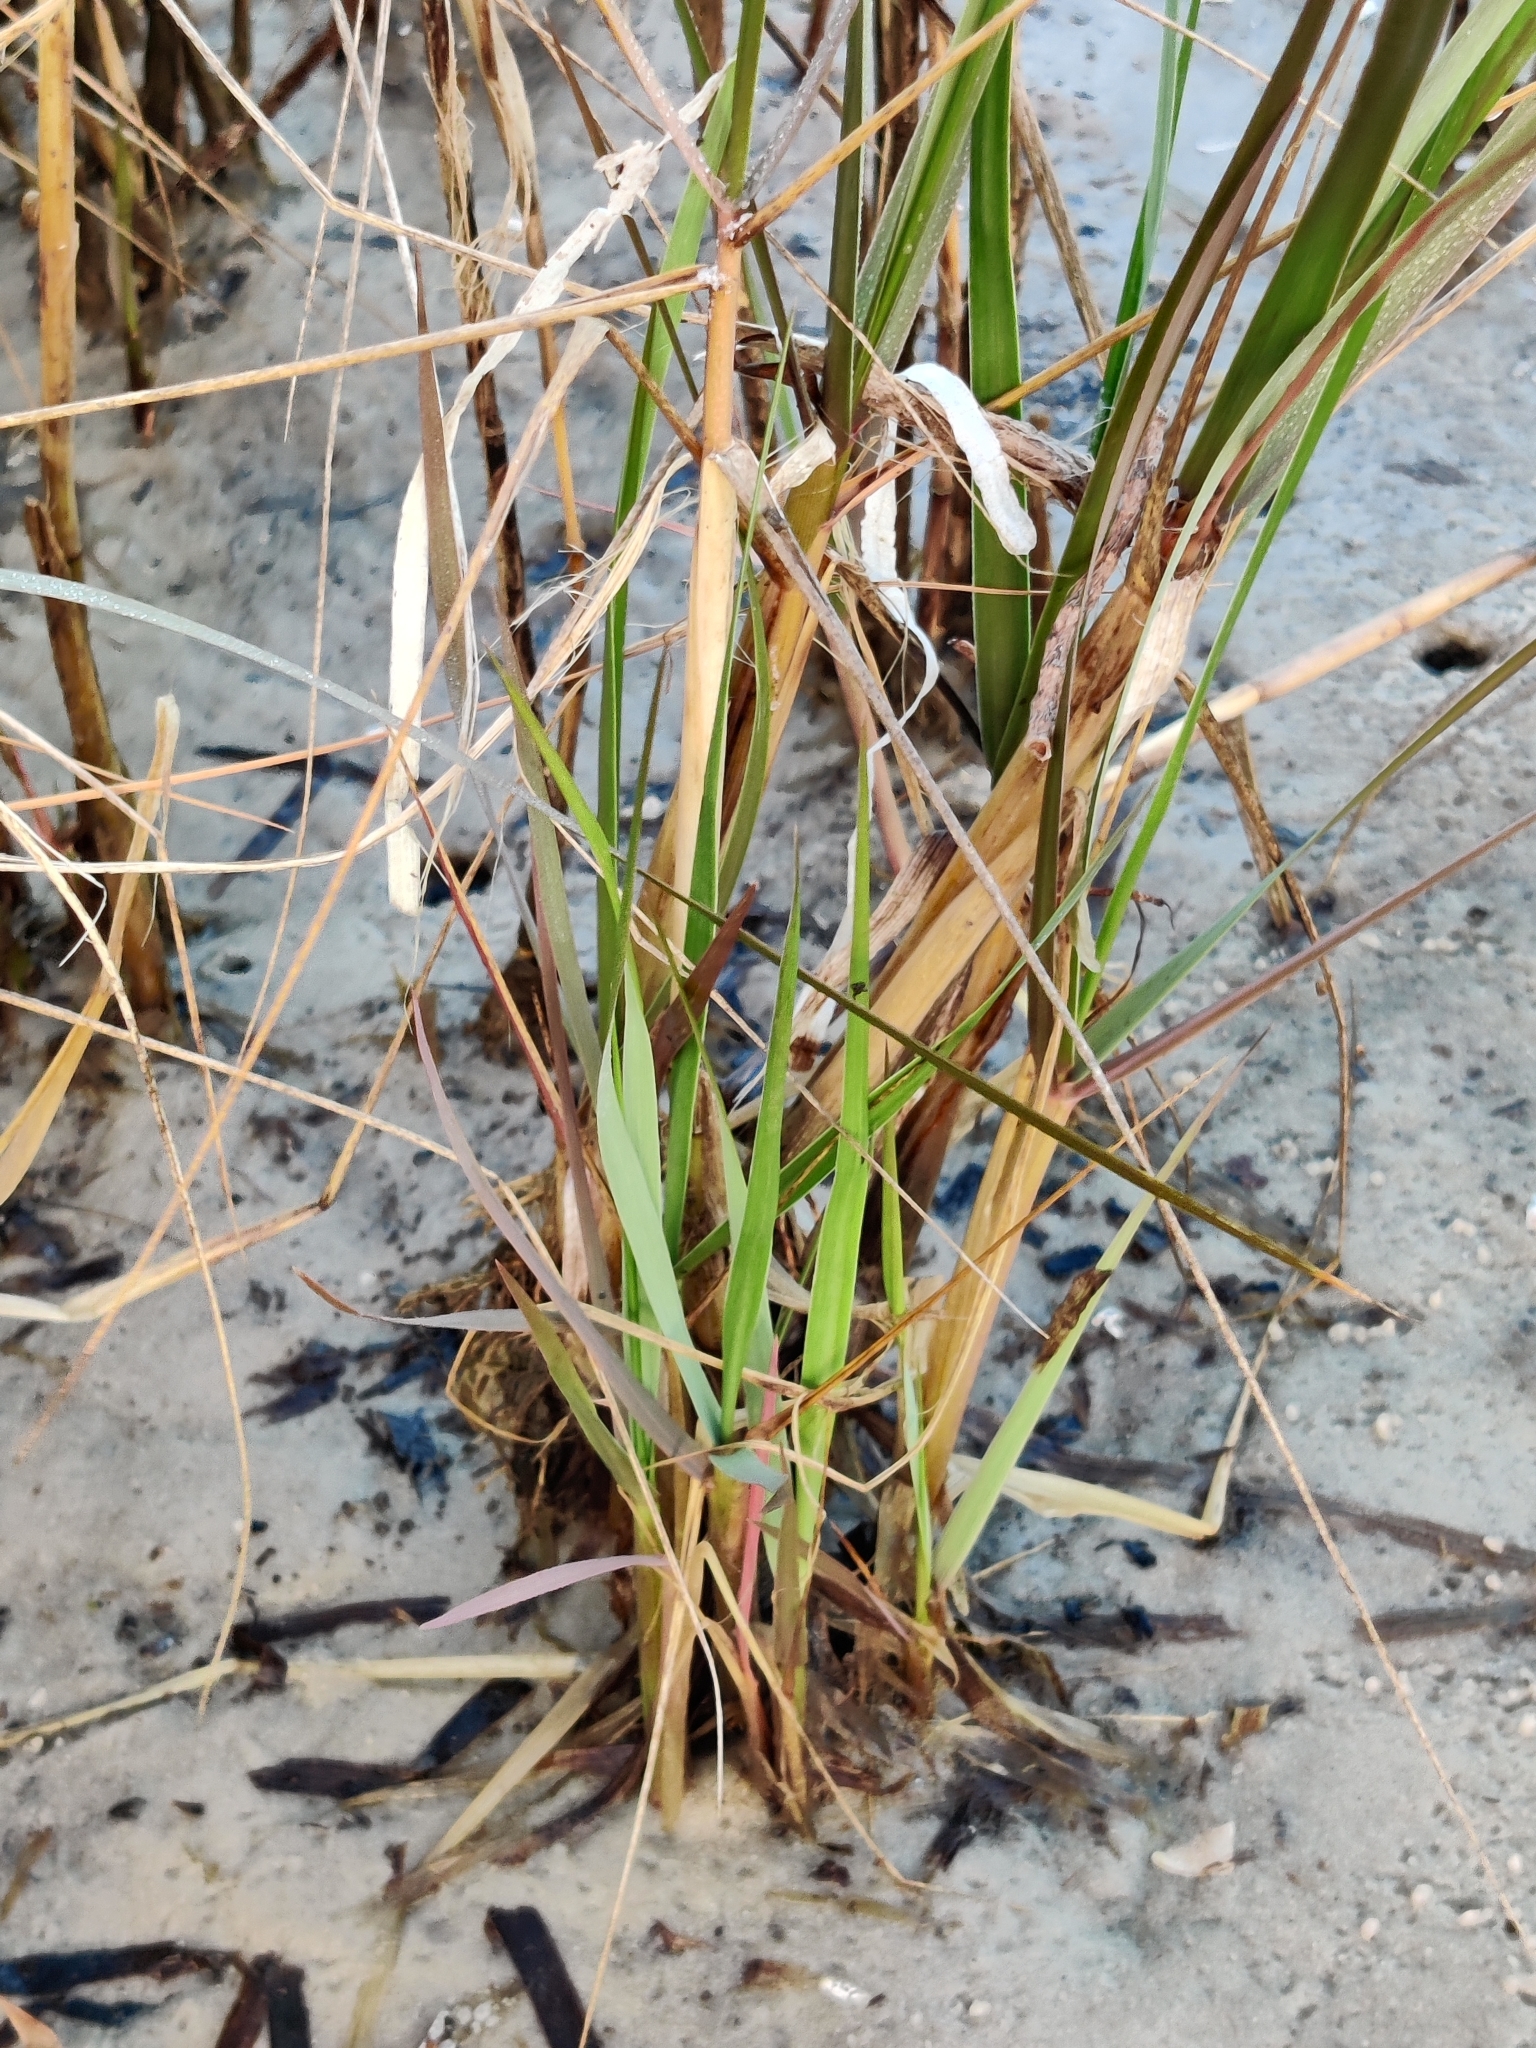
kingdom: Plantae
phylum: Tracheophyta
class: Liliopsida
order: Poales
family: Poaceae
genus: Sporobolus
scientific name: Sporobolus alterniflorus
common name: Atlantic cordgrass
